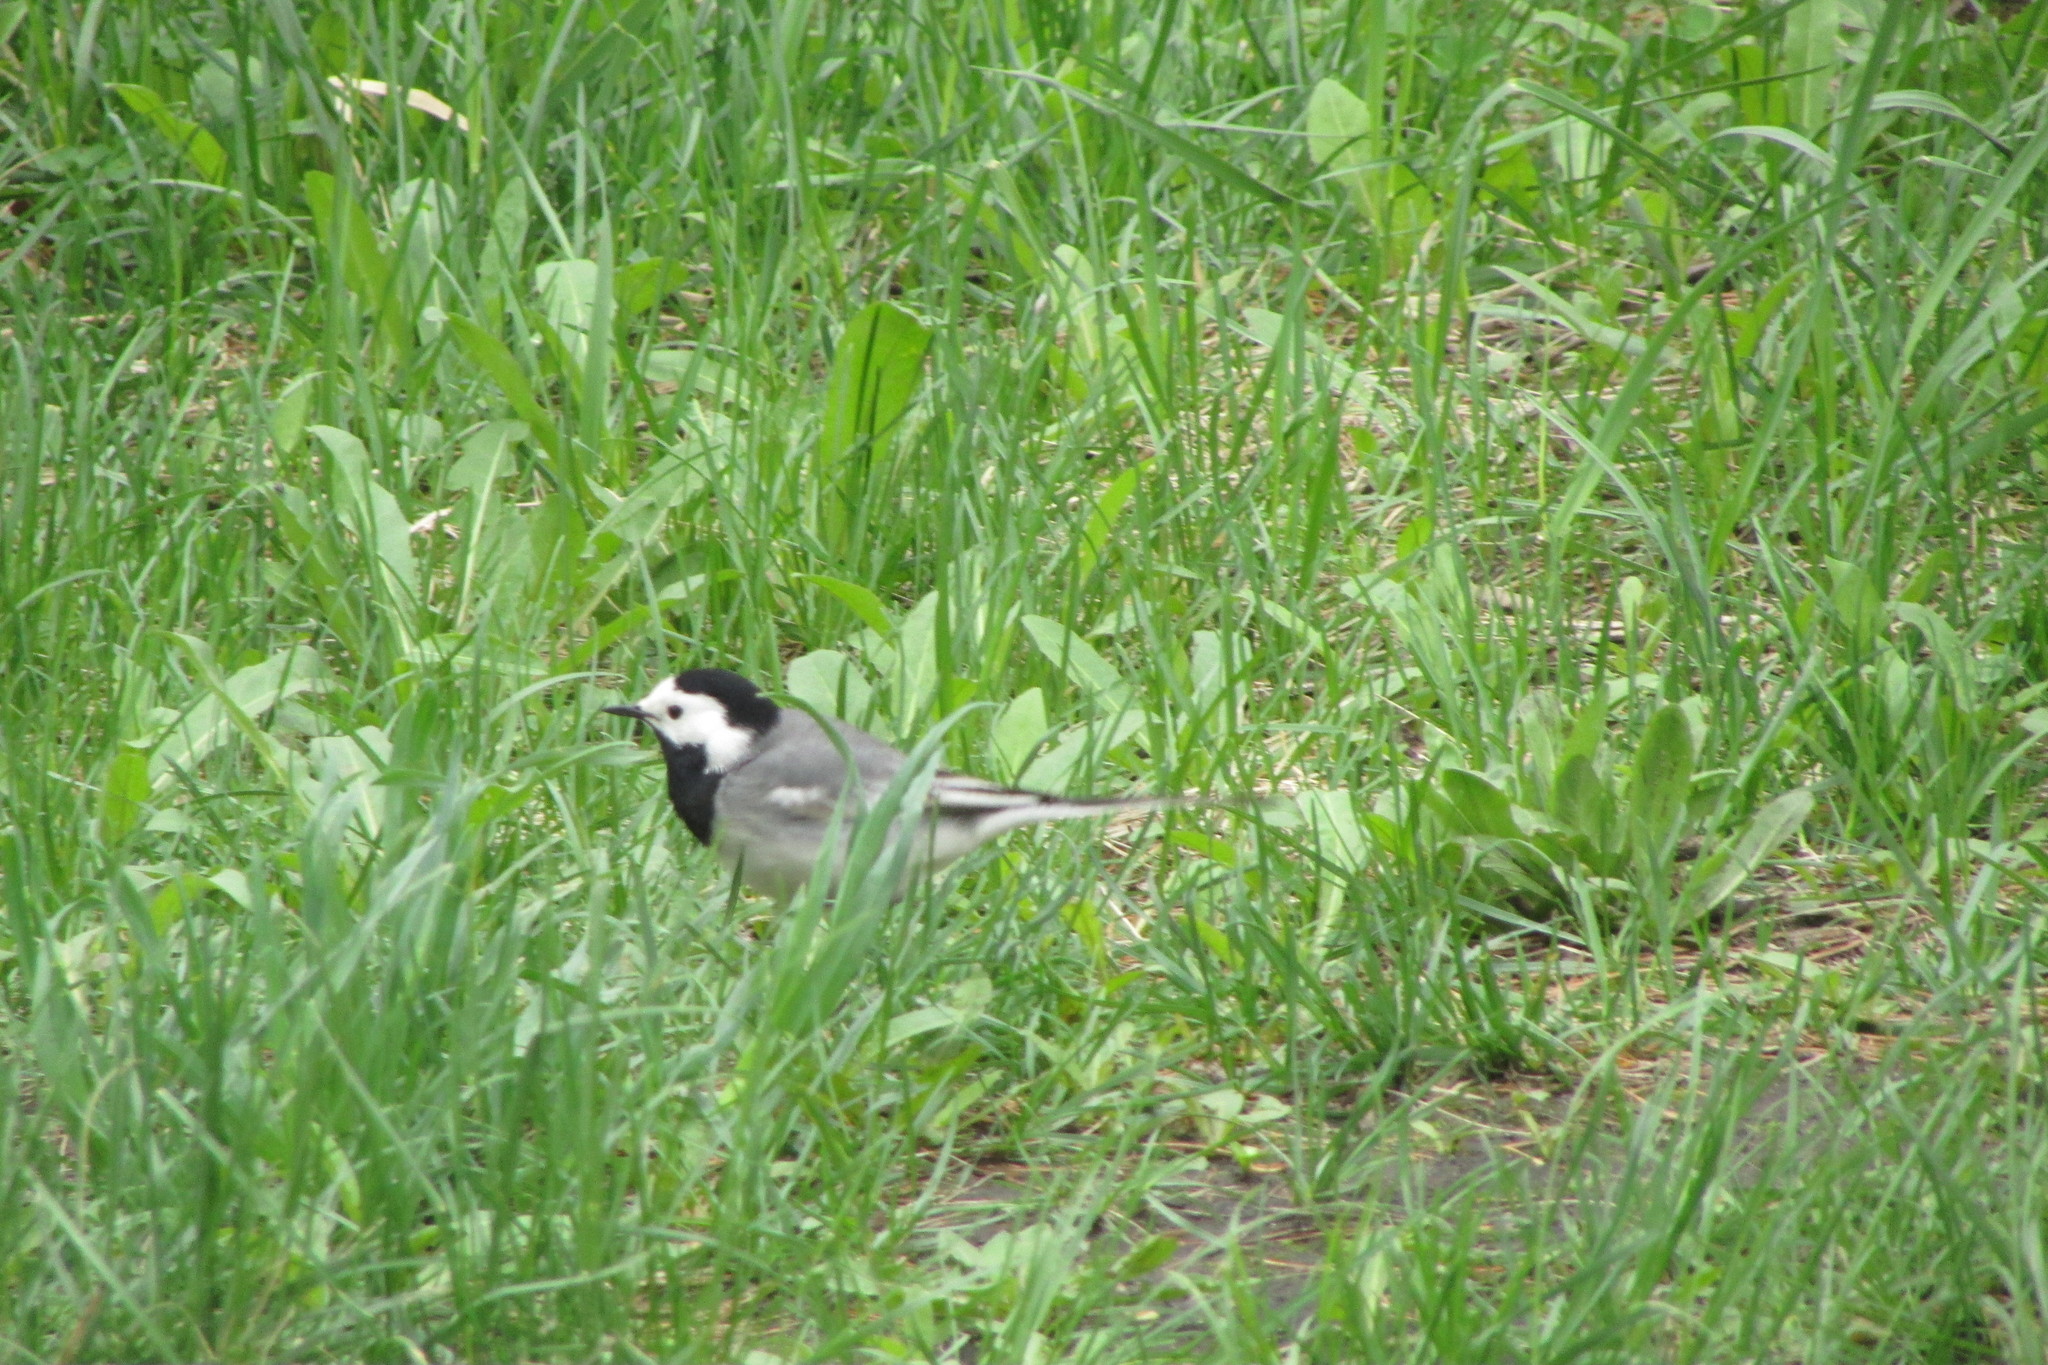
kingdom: Animalia
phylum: Chordata
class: Aves
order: Passeriformes
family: Motacillidae
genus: Motacilla
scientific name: Motacilla alba
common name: White wagtail
